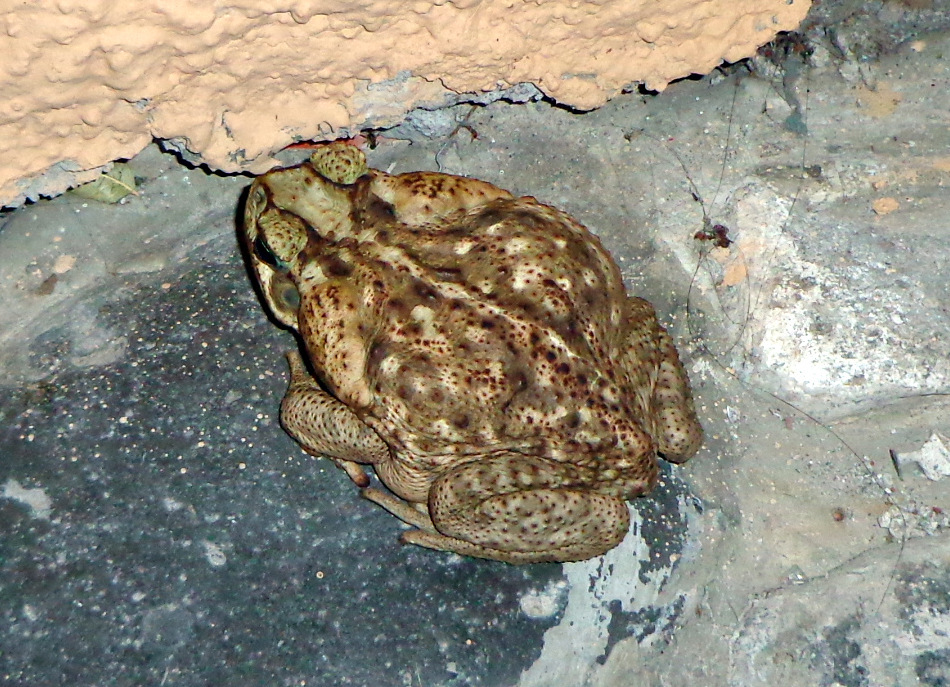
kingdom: Animalia
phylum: Chordata
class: Amphibia
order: Anura
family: Bufonidae
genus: Rhinella
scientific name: Rhinella horribilis
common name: Mesoamerican cane toad
